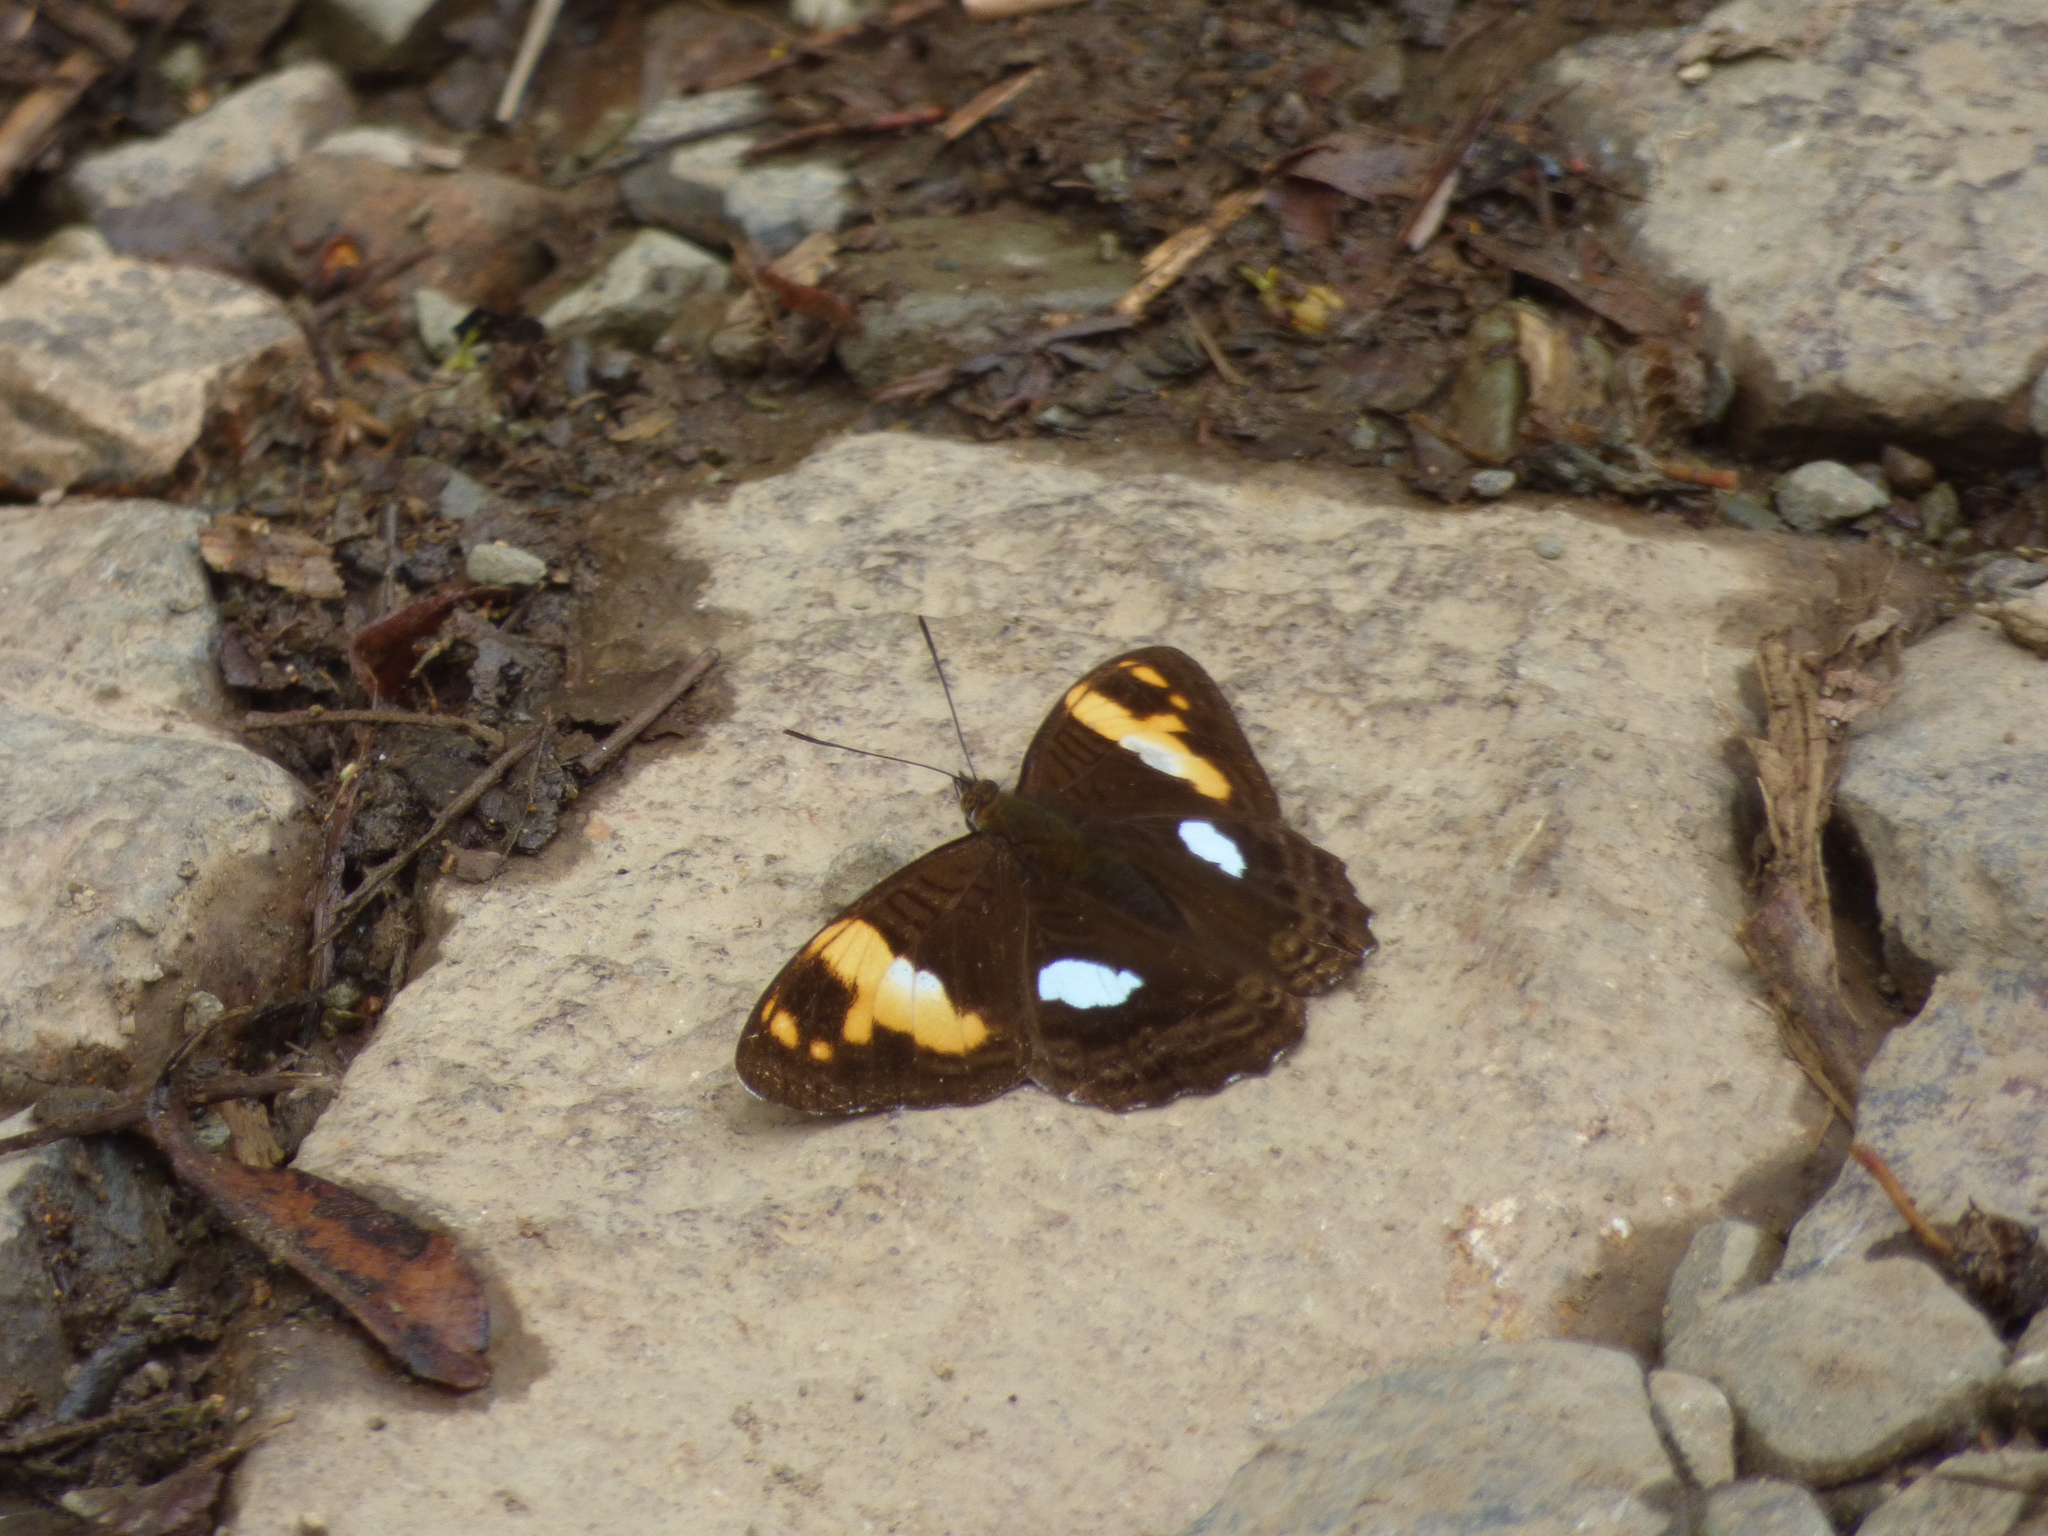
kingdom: Animalia
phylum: Arthropoda
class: Insecta
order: Lepidoptera
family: Nymphalidae
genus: Limenitis
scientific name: Limenitis justina
